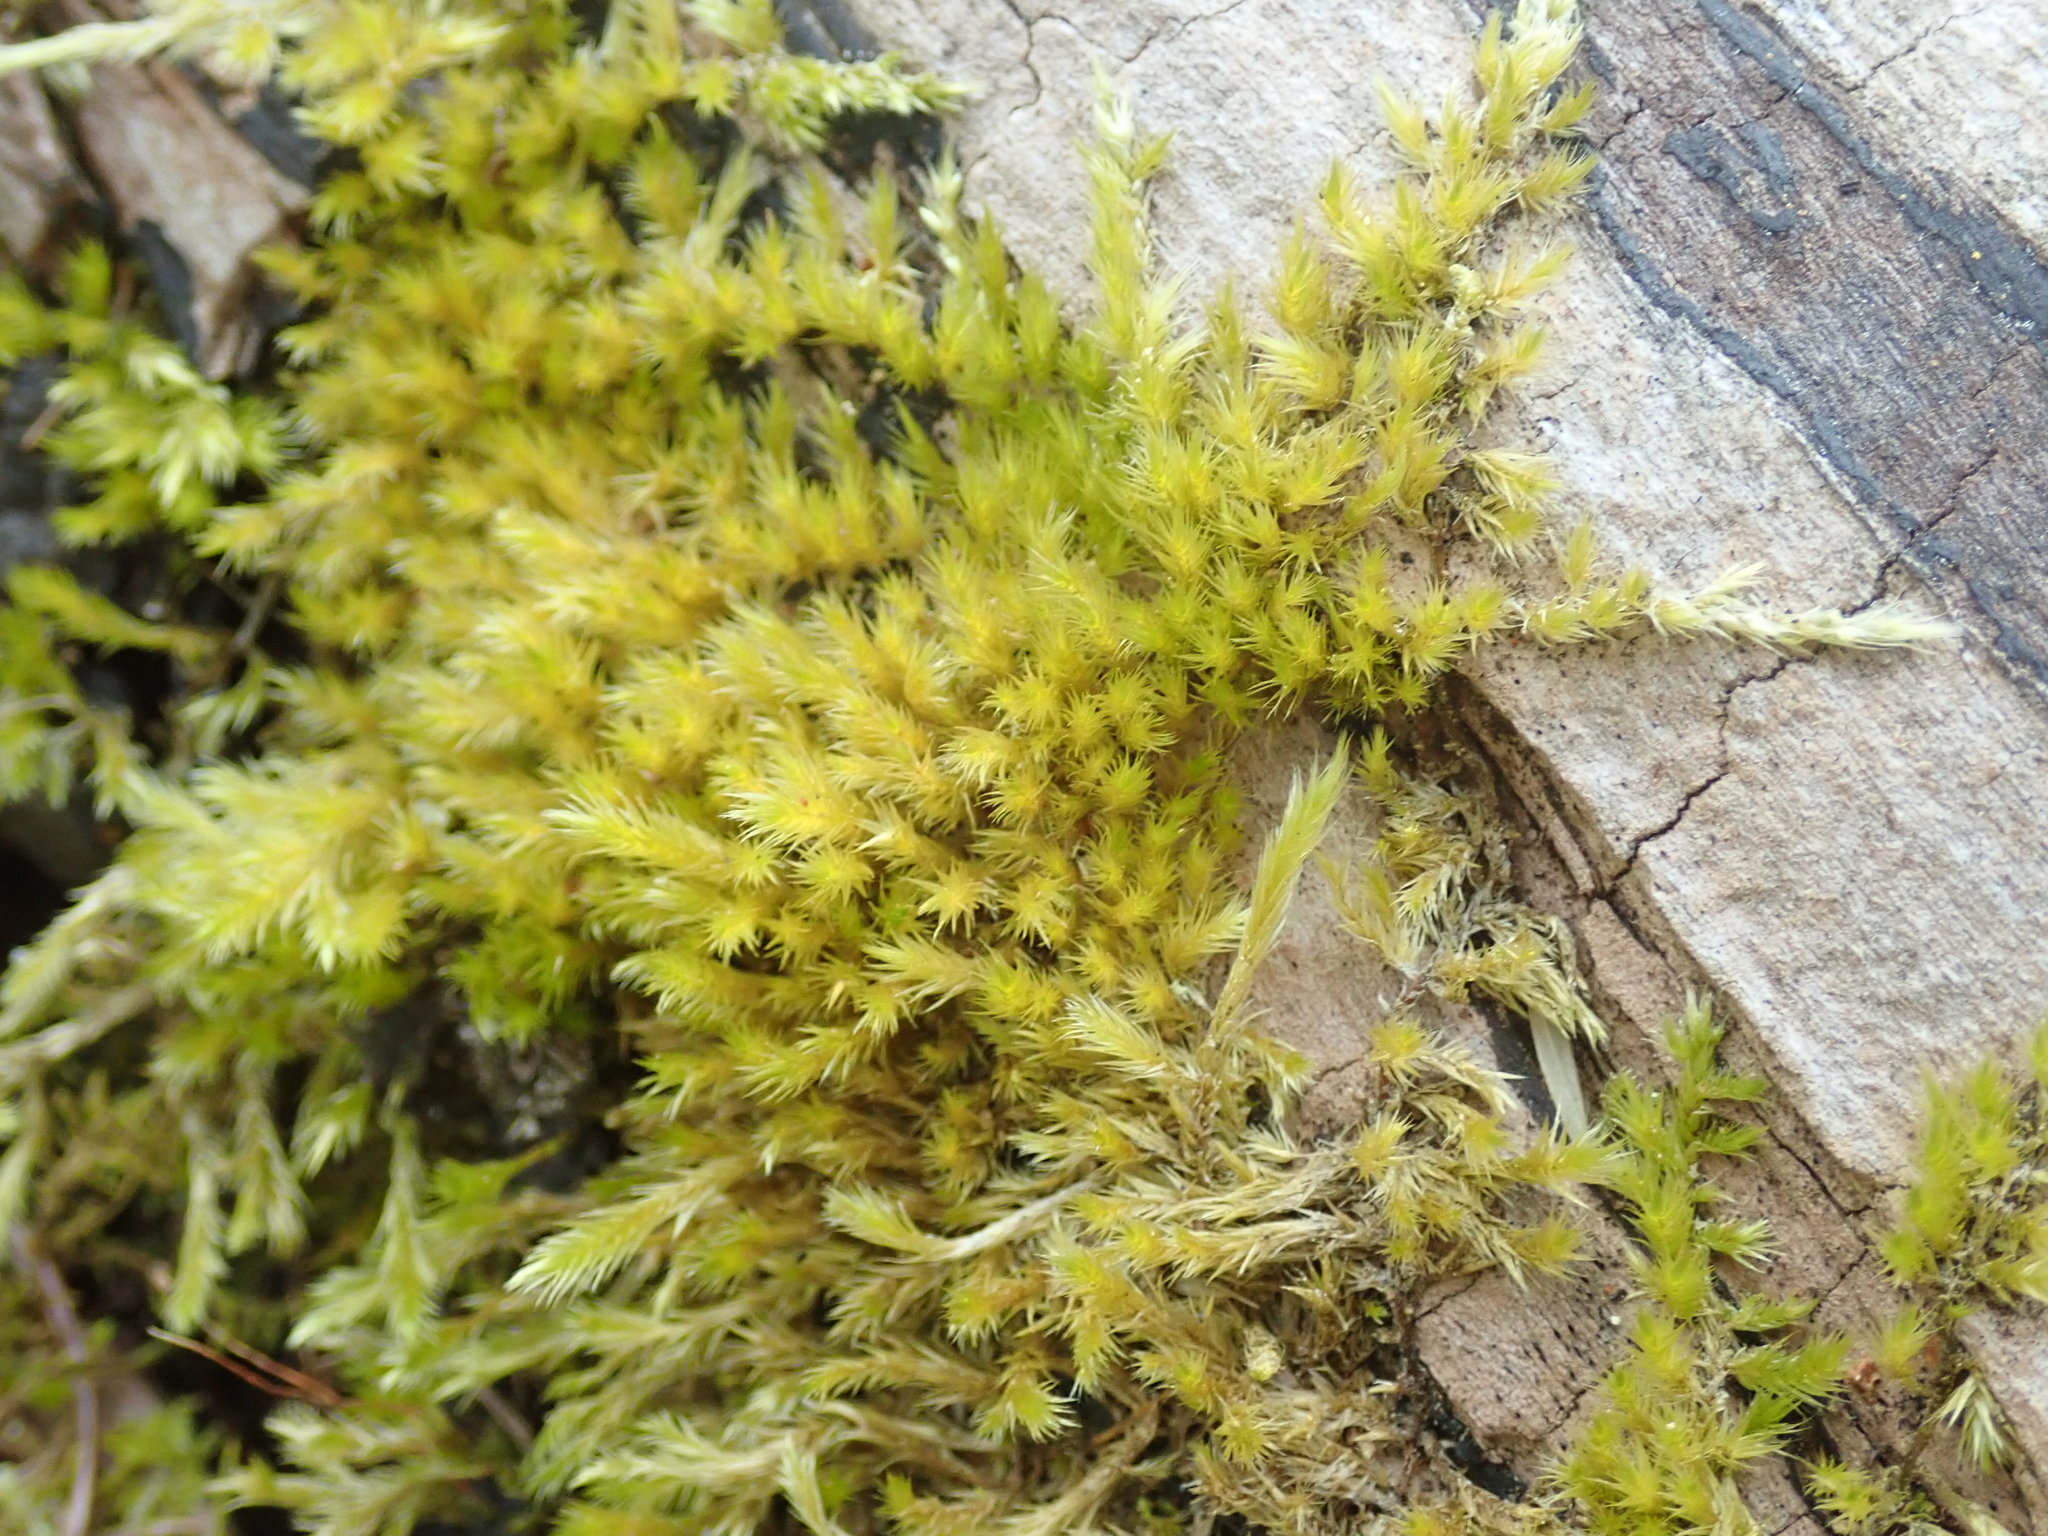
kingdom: Plantae
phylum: Bryophyta
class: Bryopsida
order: Hypnales
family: Brachytheciaceae
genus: Homalothecium
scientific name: Homalothecium fulgescens
